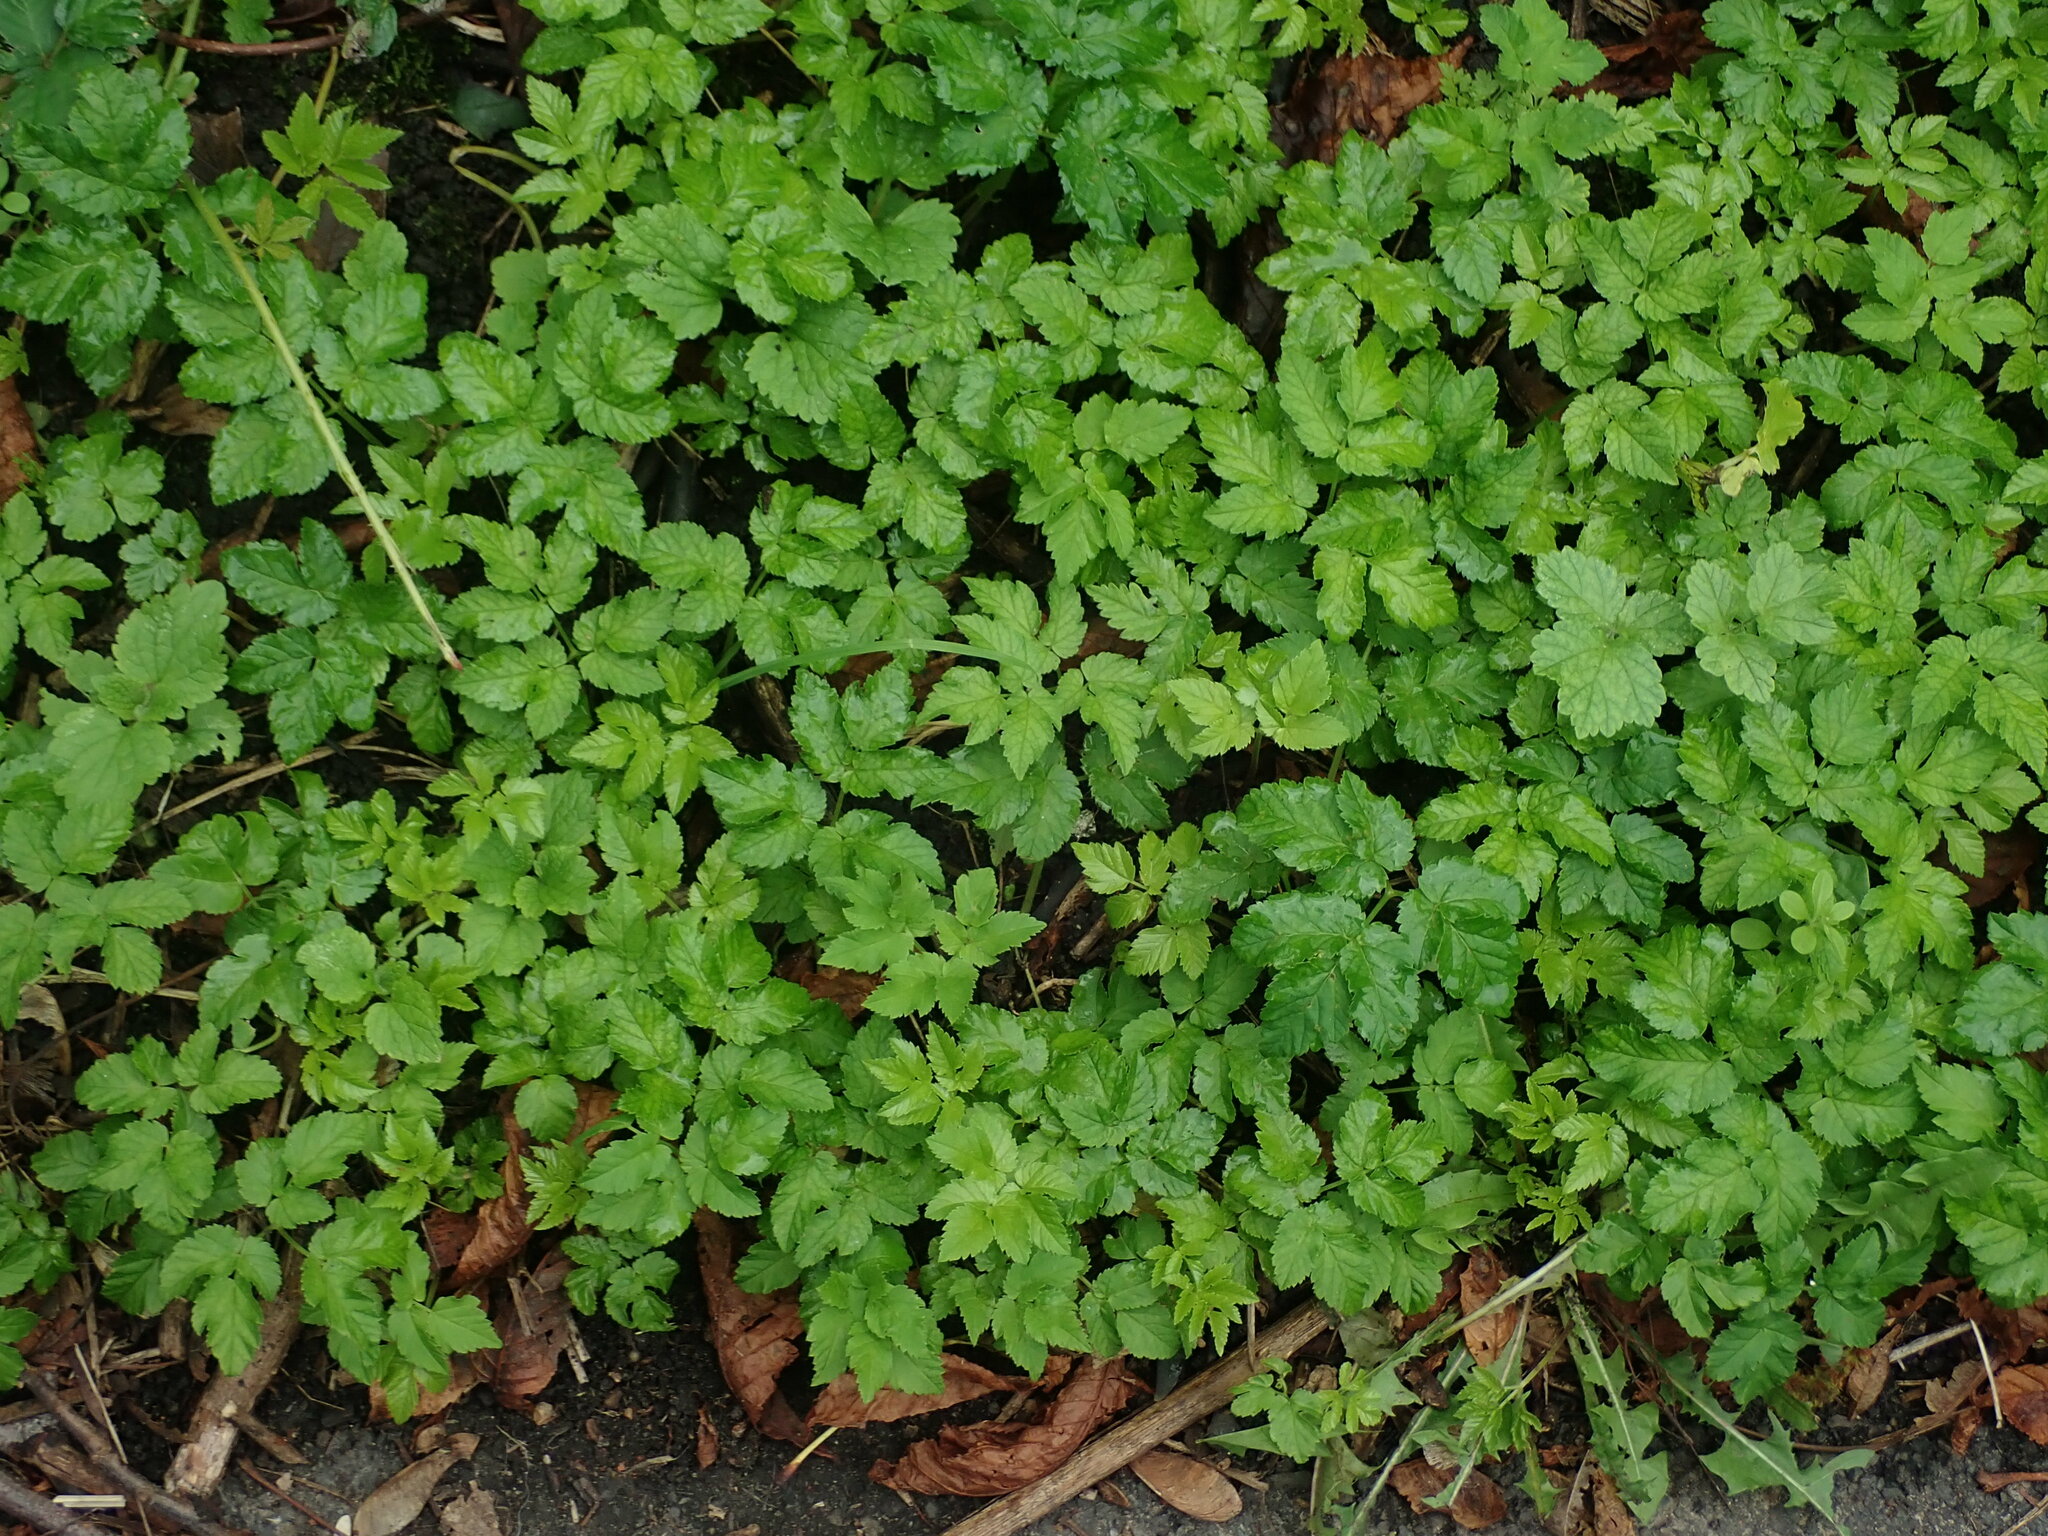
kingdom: Plantae
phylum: Tracheophyta
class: Magnoliopsida
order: Apiales
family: Apiaceae
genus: Aegopodium
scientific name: Aegopodium podagraria
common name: Ground-elder
